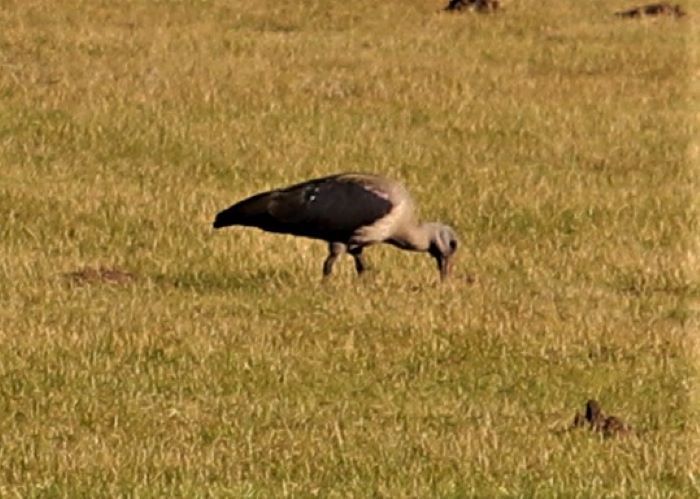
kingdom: Animalia
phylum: Chordata
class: Aves
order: Pelecaniformes
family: Threskiornithidae
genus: Bostrychia
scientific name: Bostrychia hagedash
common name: Hadada ibis
